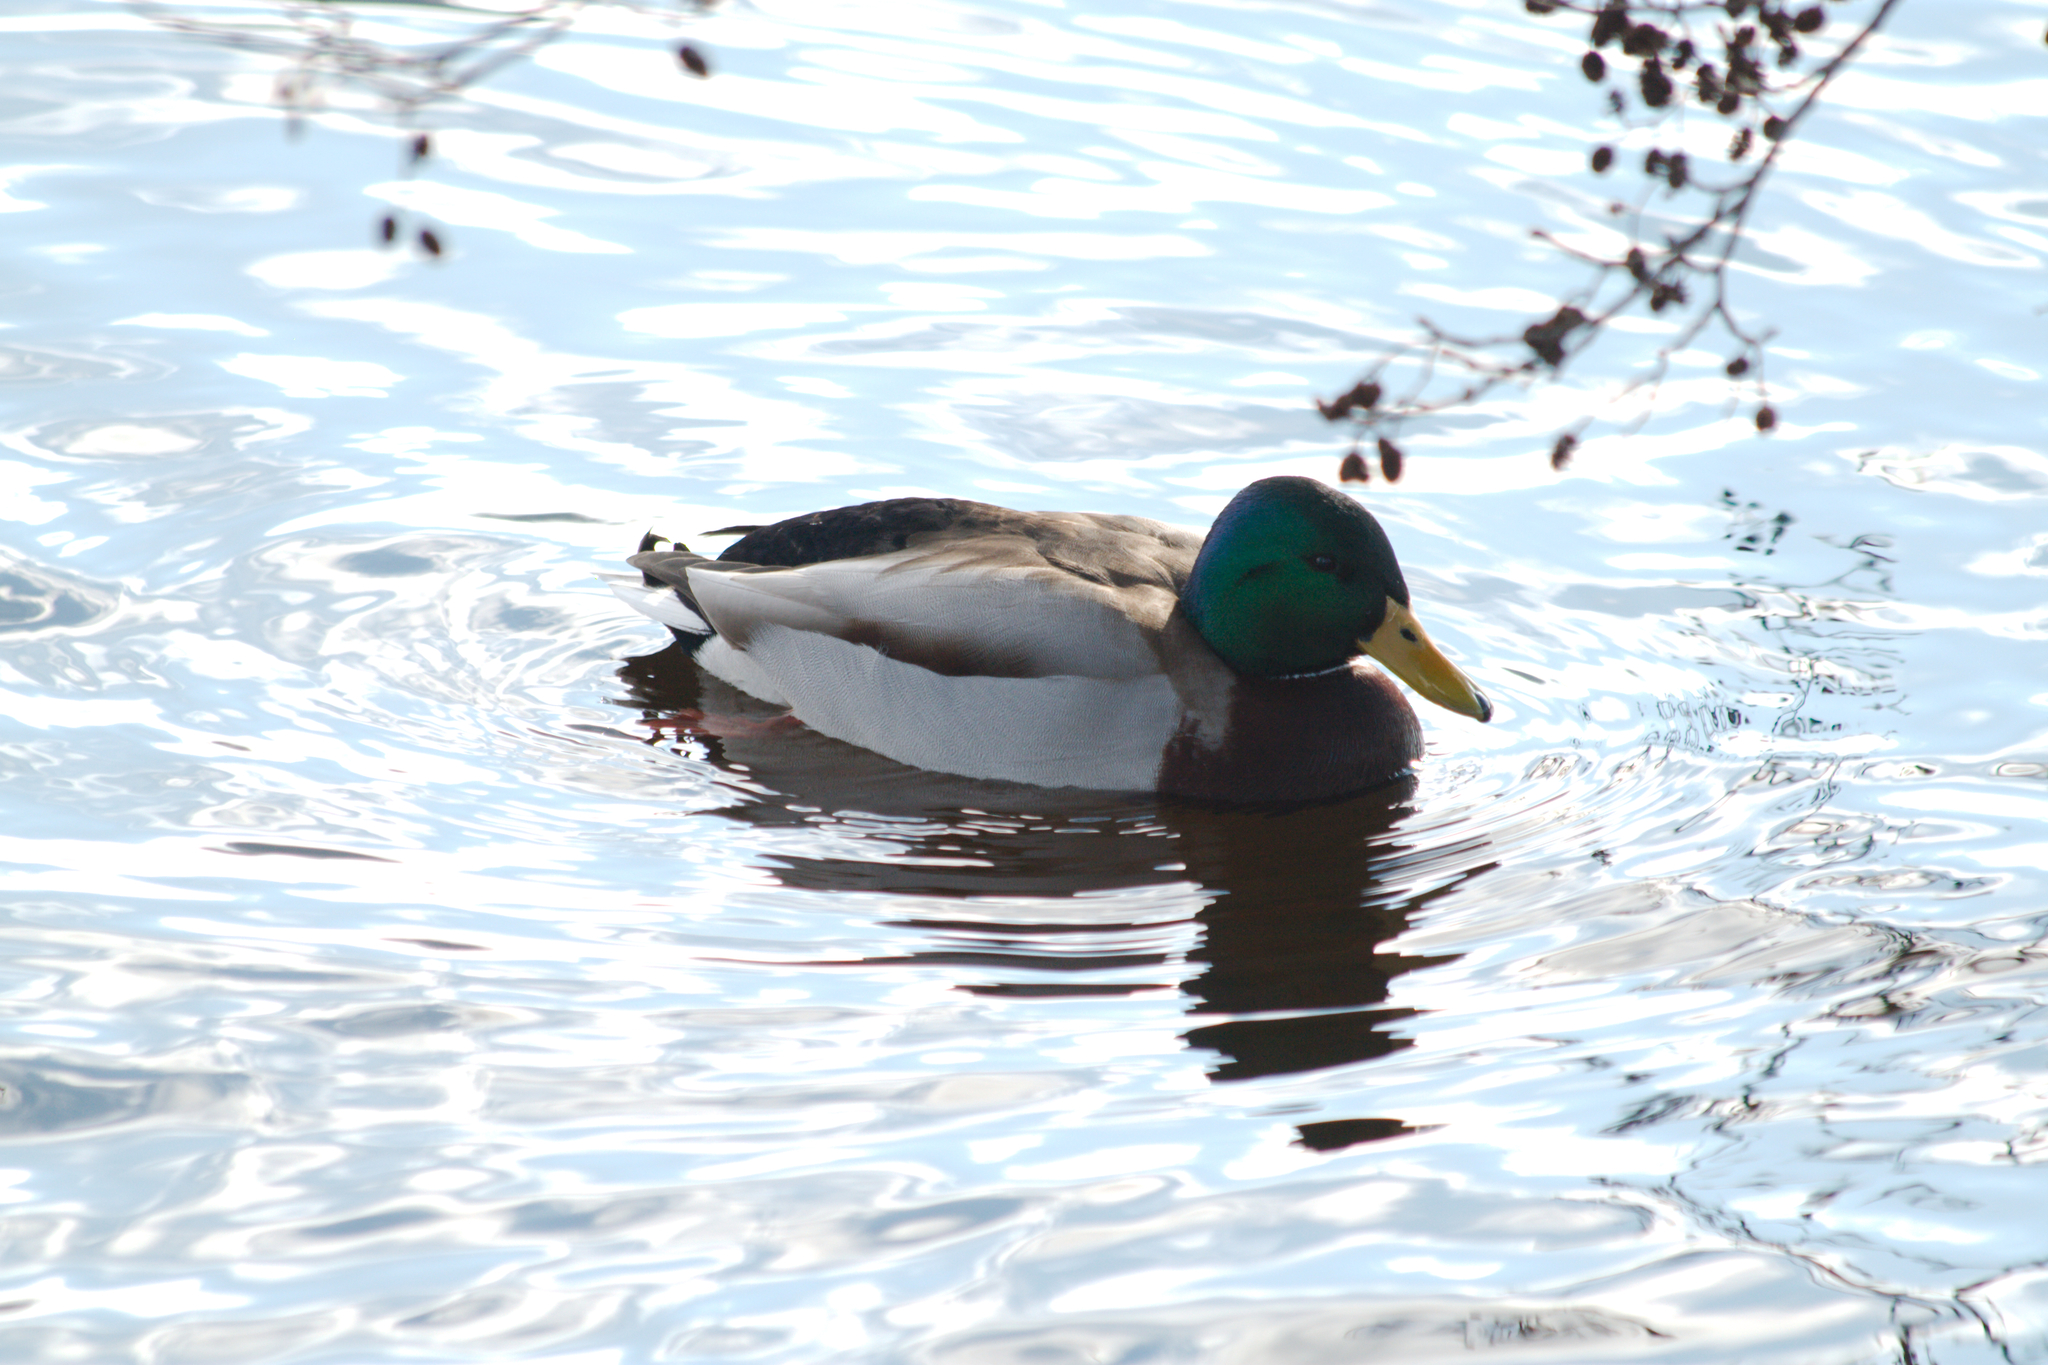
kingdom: Animalia
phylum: Chordata
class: Aves
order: Anseriformes
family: Anatidae
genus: Anas
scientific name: Anas platyrhynchos
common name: Mallard
